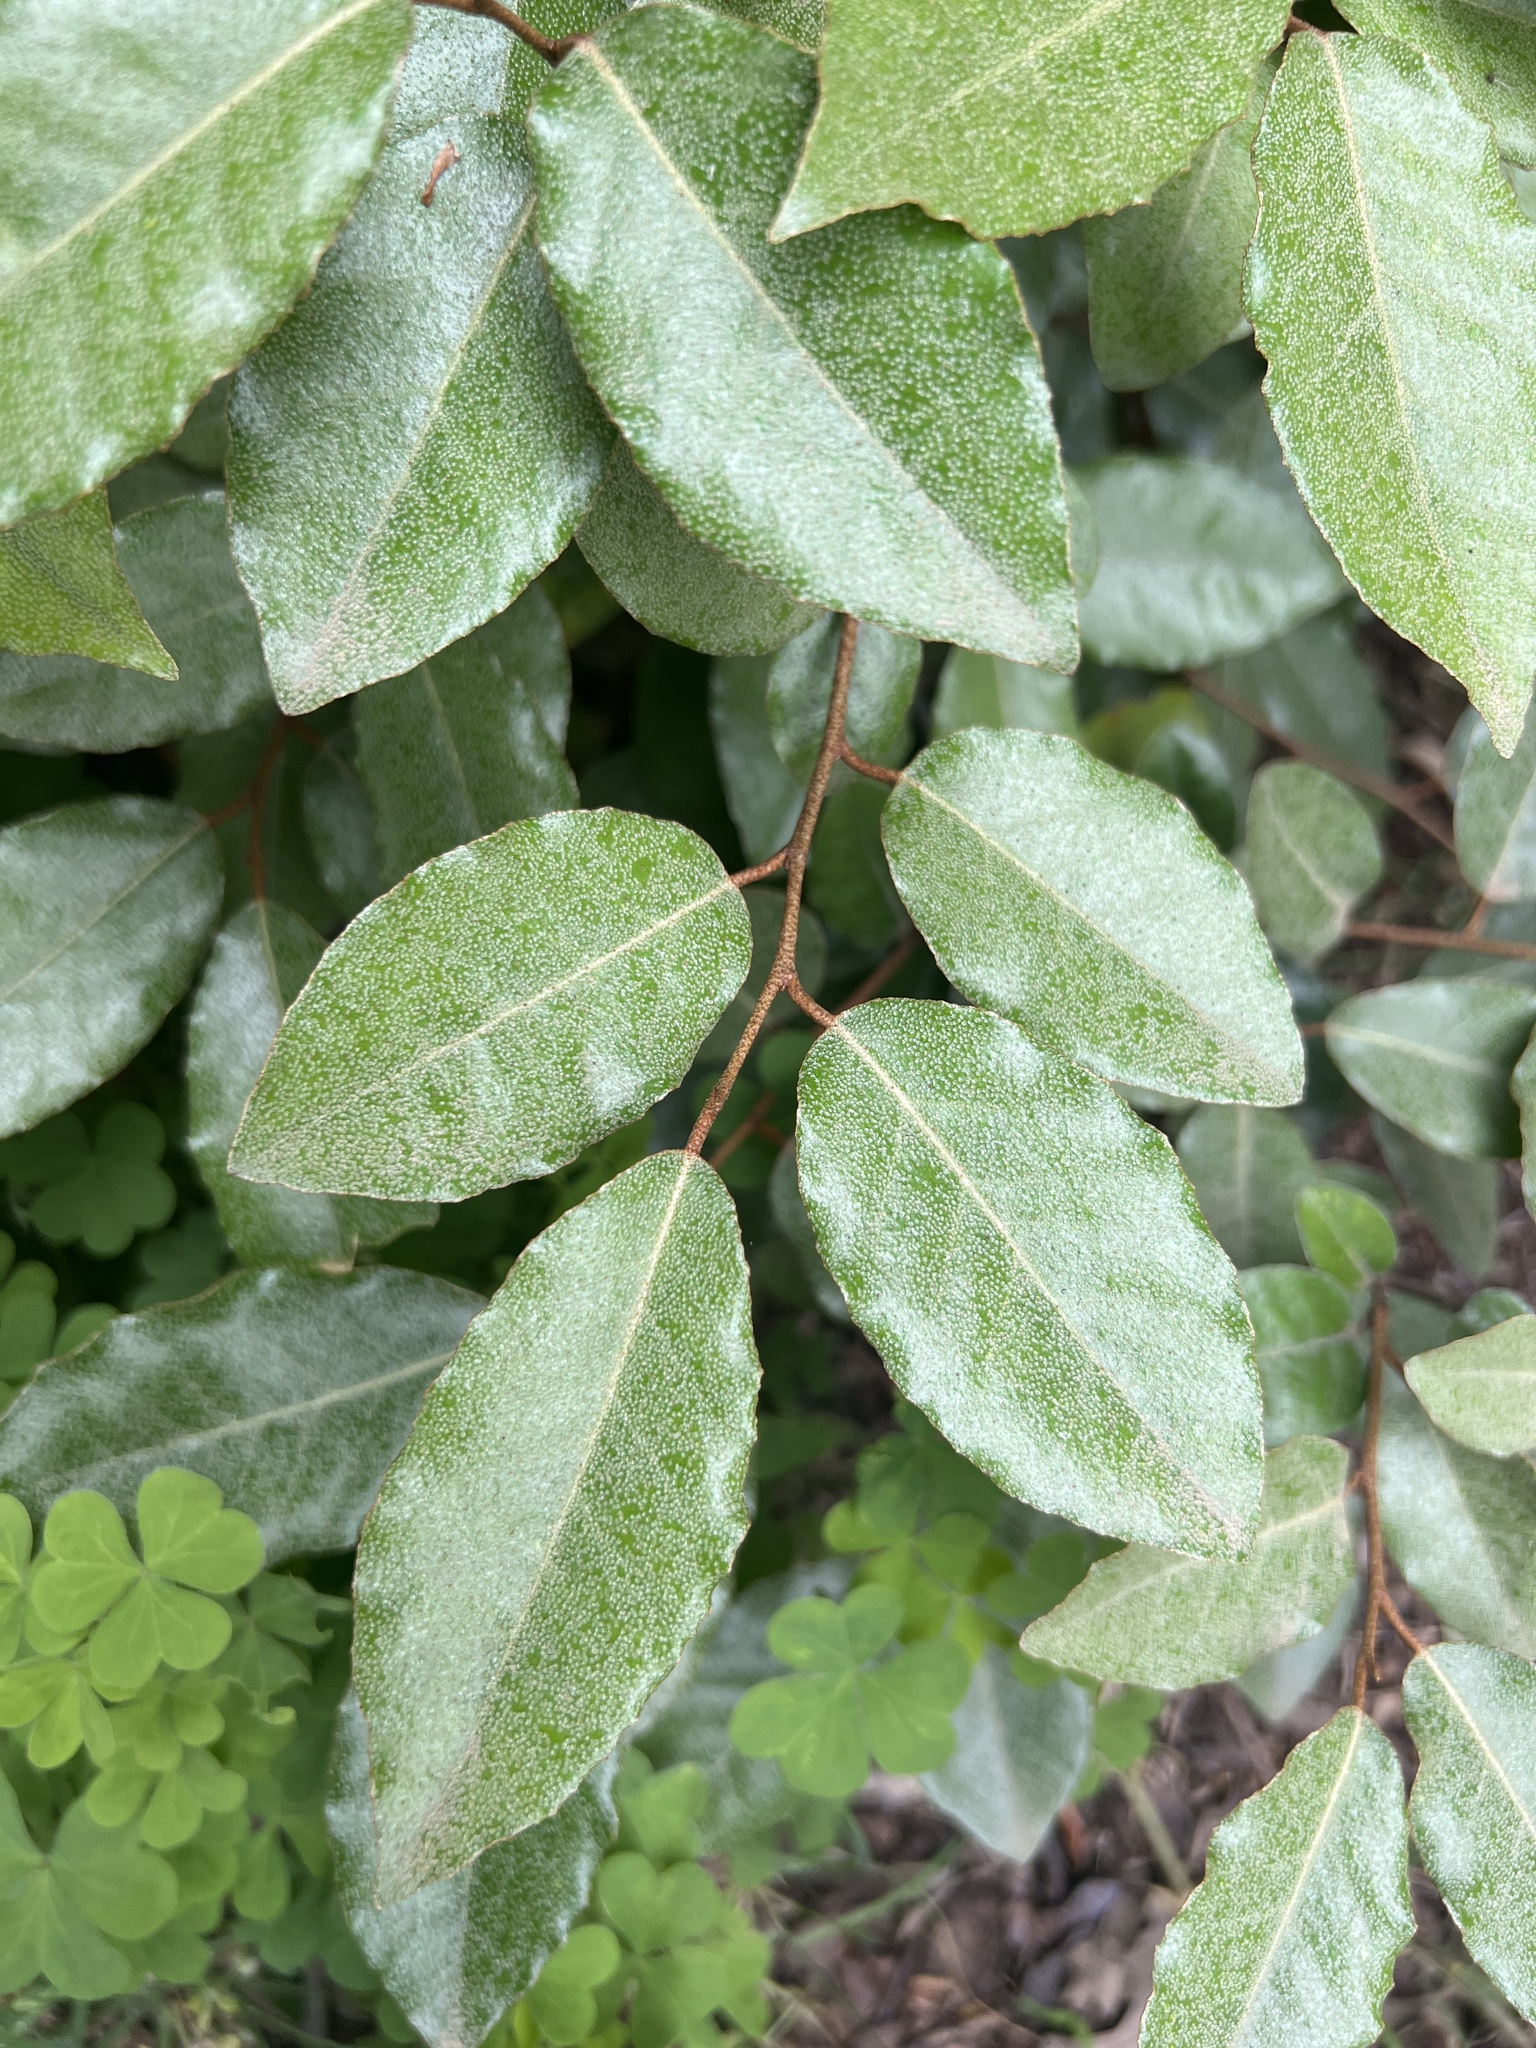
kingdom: Plantae
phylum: Tracheophyta
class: Magnoliopsida
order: Rosales
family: Elaeagnaceae
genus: Elaeagnus
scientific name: Elaeagnus pungens
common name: Spiny oleaster
